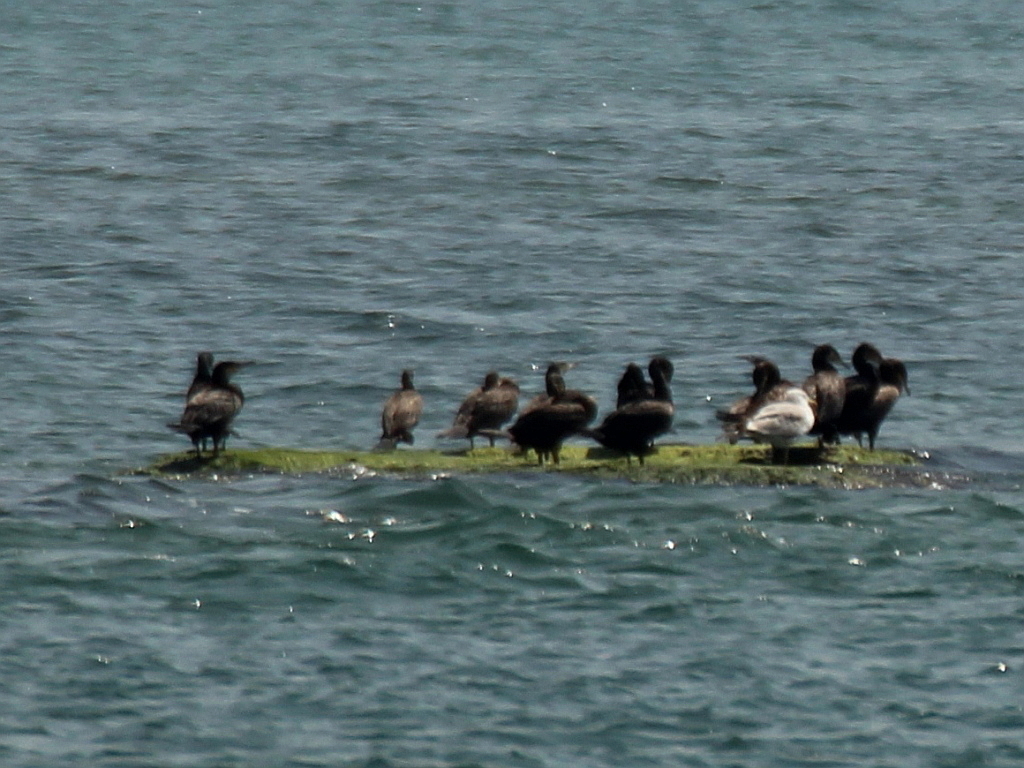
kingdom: Animalia
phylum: Chordata
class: Aves
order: Suliformes
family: Phalacrocoracidae
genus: Phalacrocorax
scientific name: Phalacrocorax carbo
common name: Great cormorant
